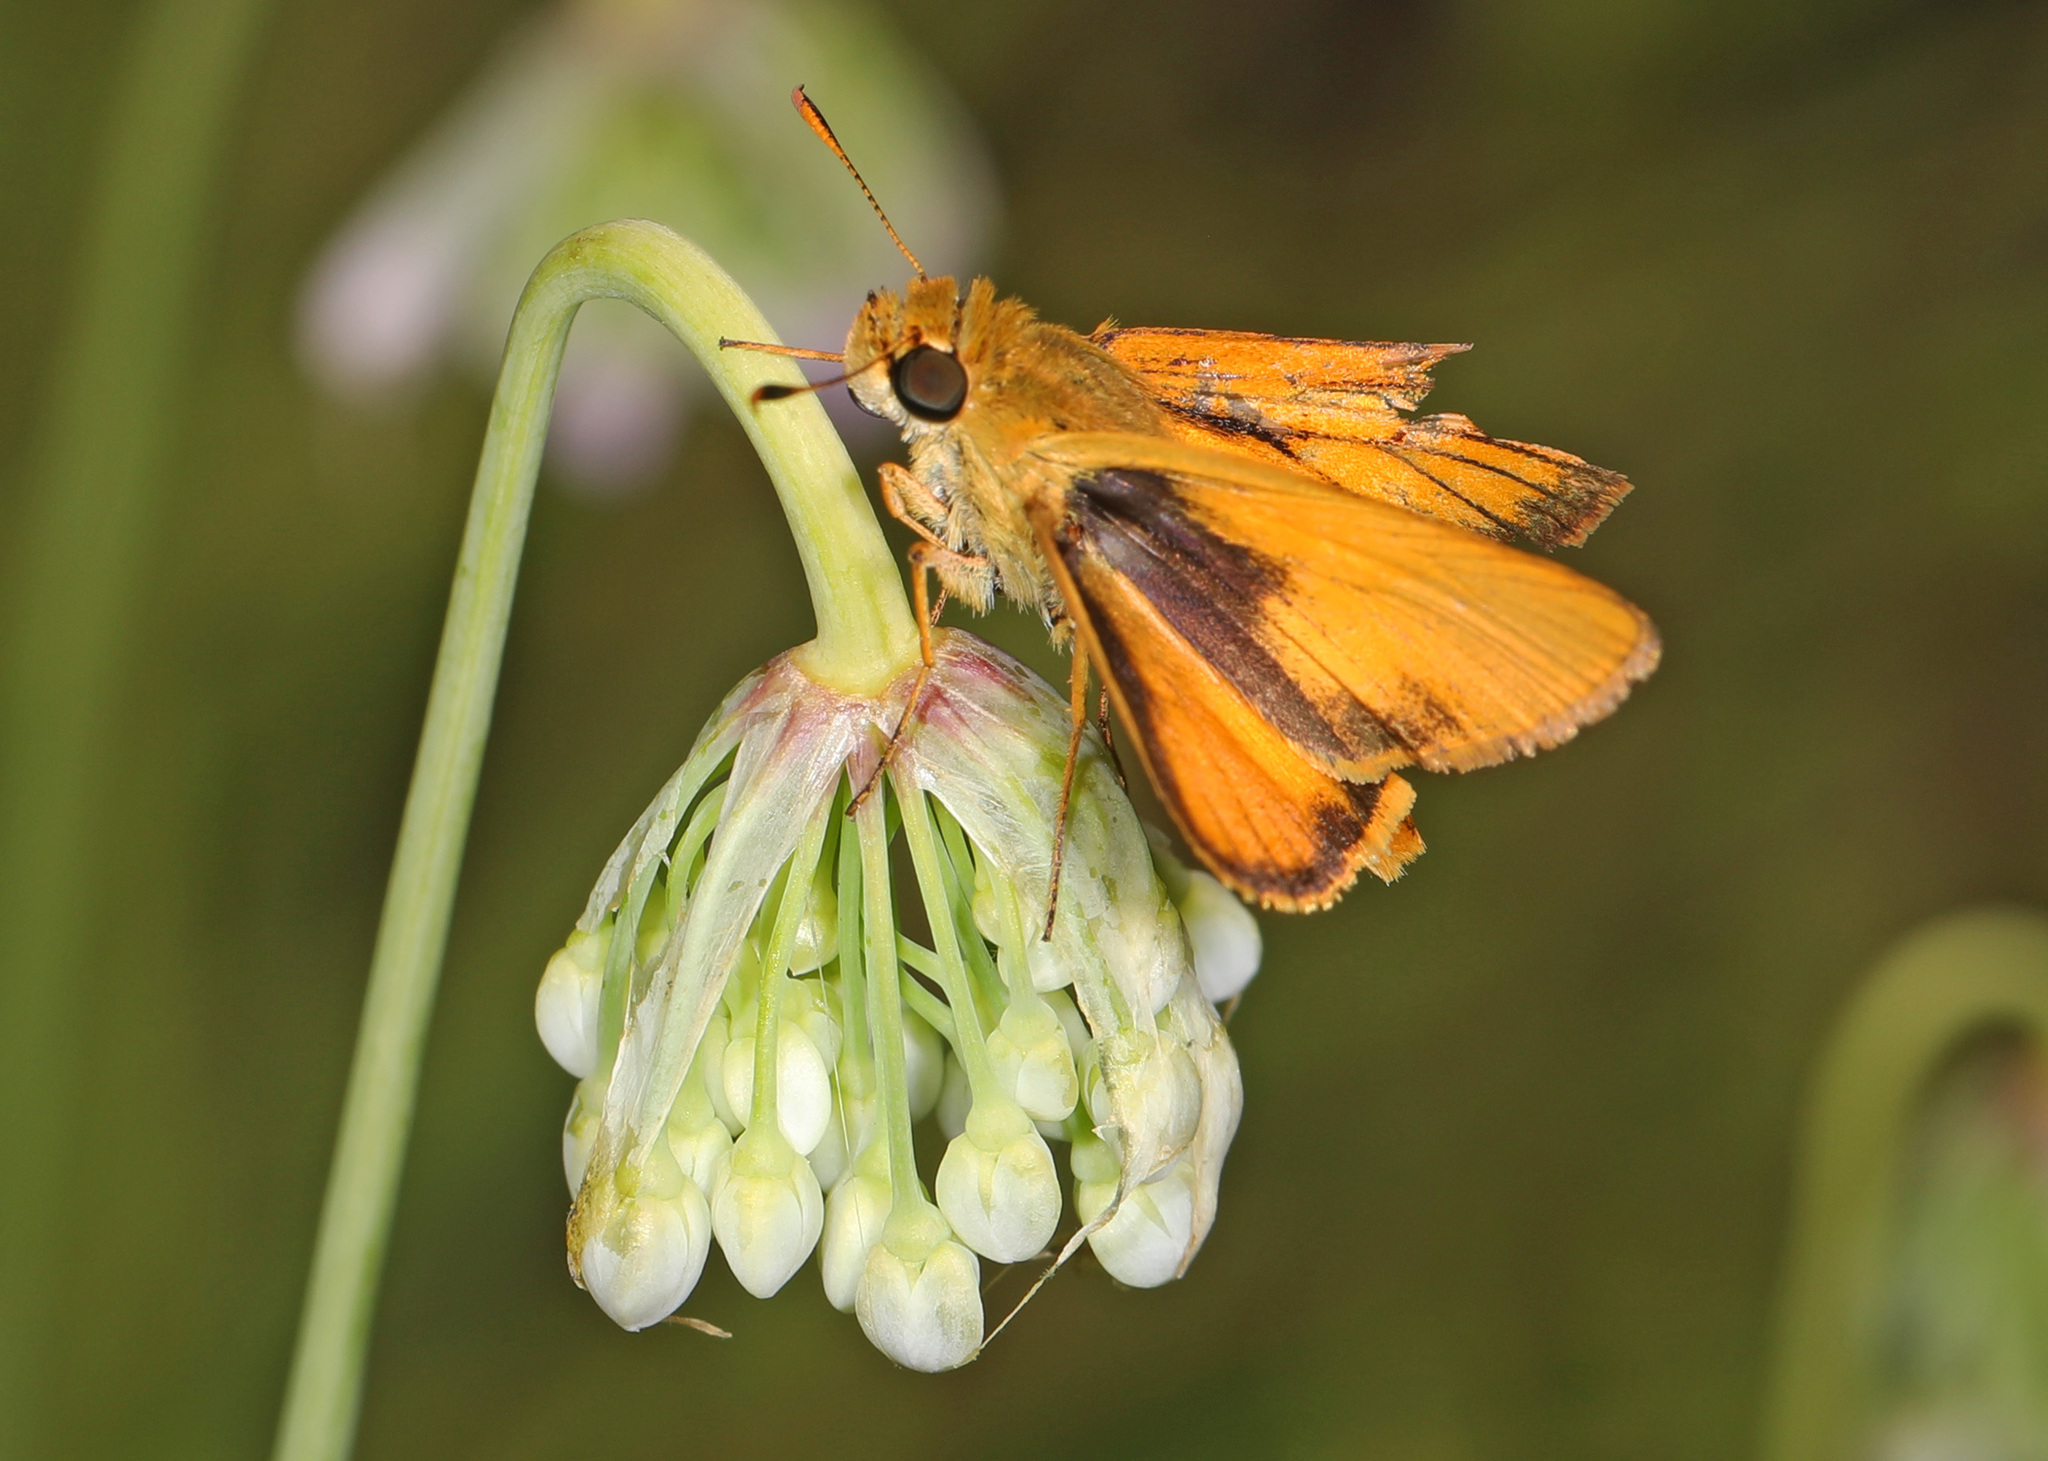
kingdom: Animalia
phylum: Arthropoda
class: Insecta
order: Lepidoptera
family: Hesperiidae
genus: Atrytone
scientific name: Atrytone delaware
